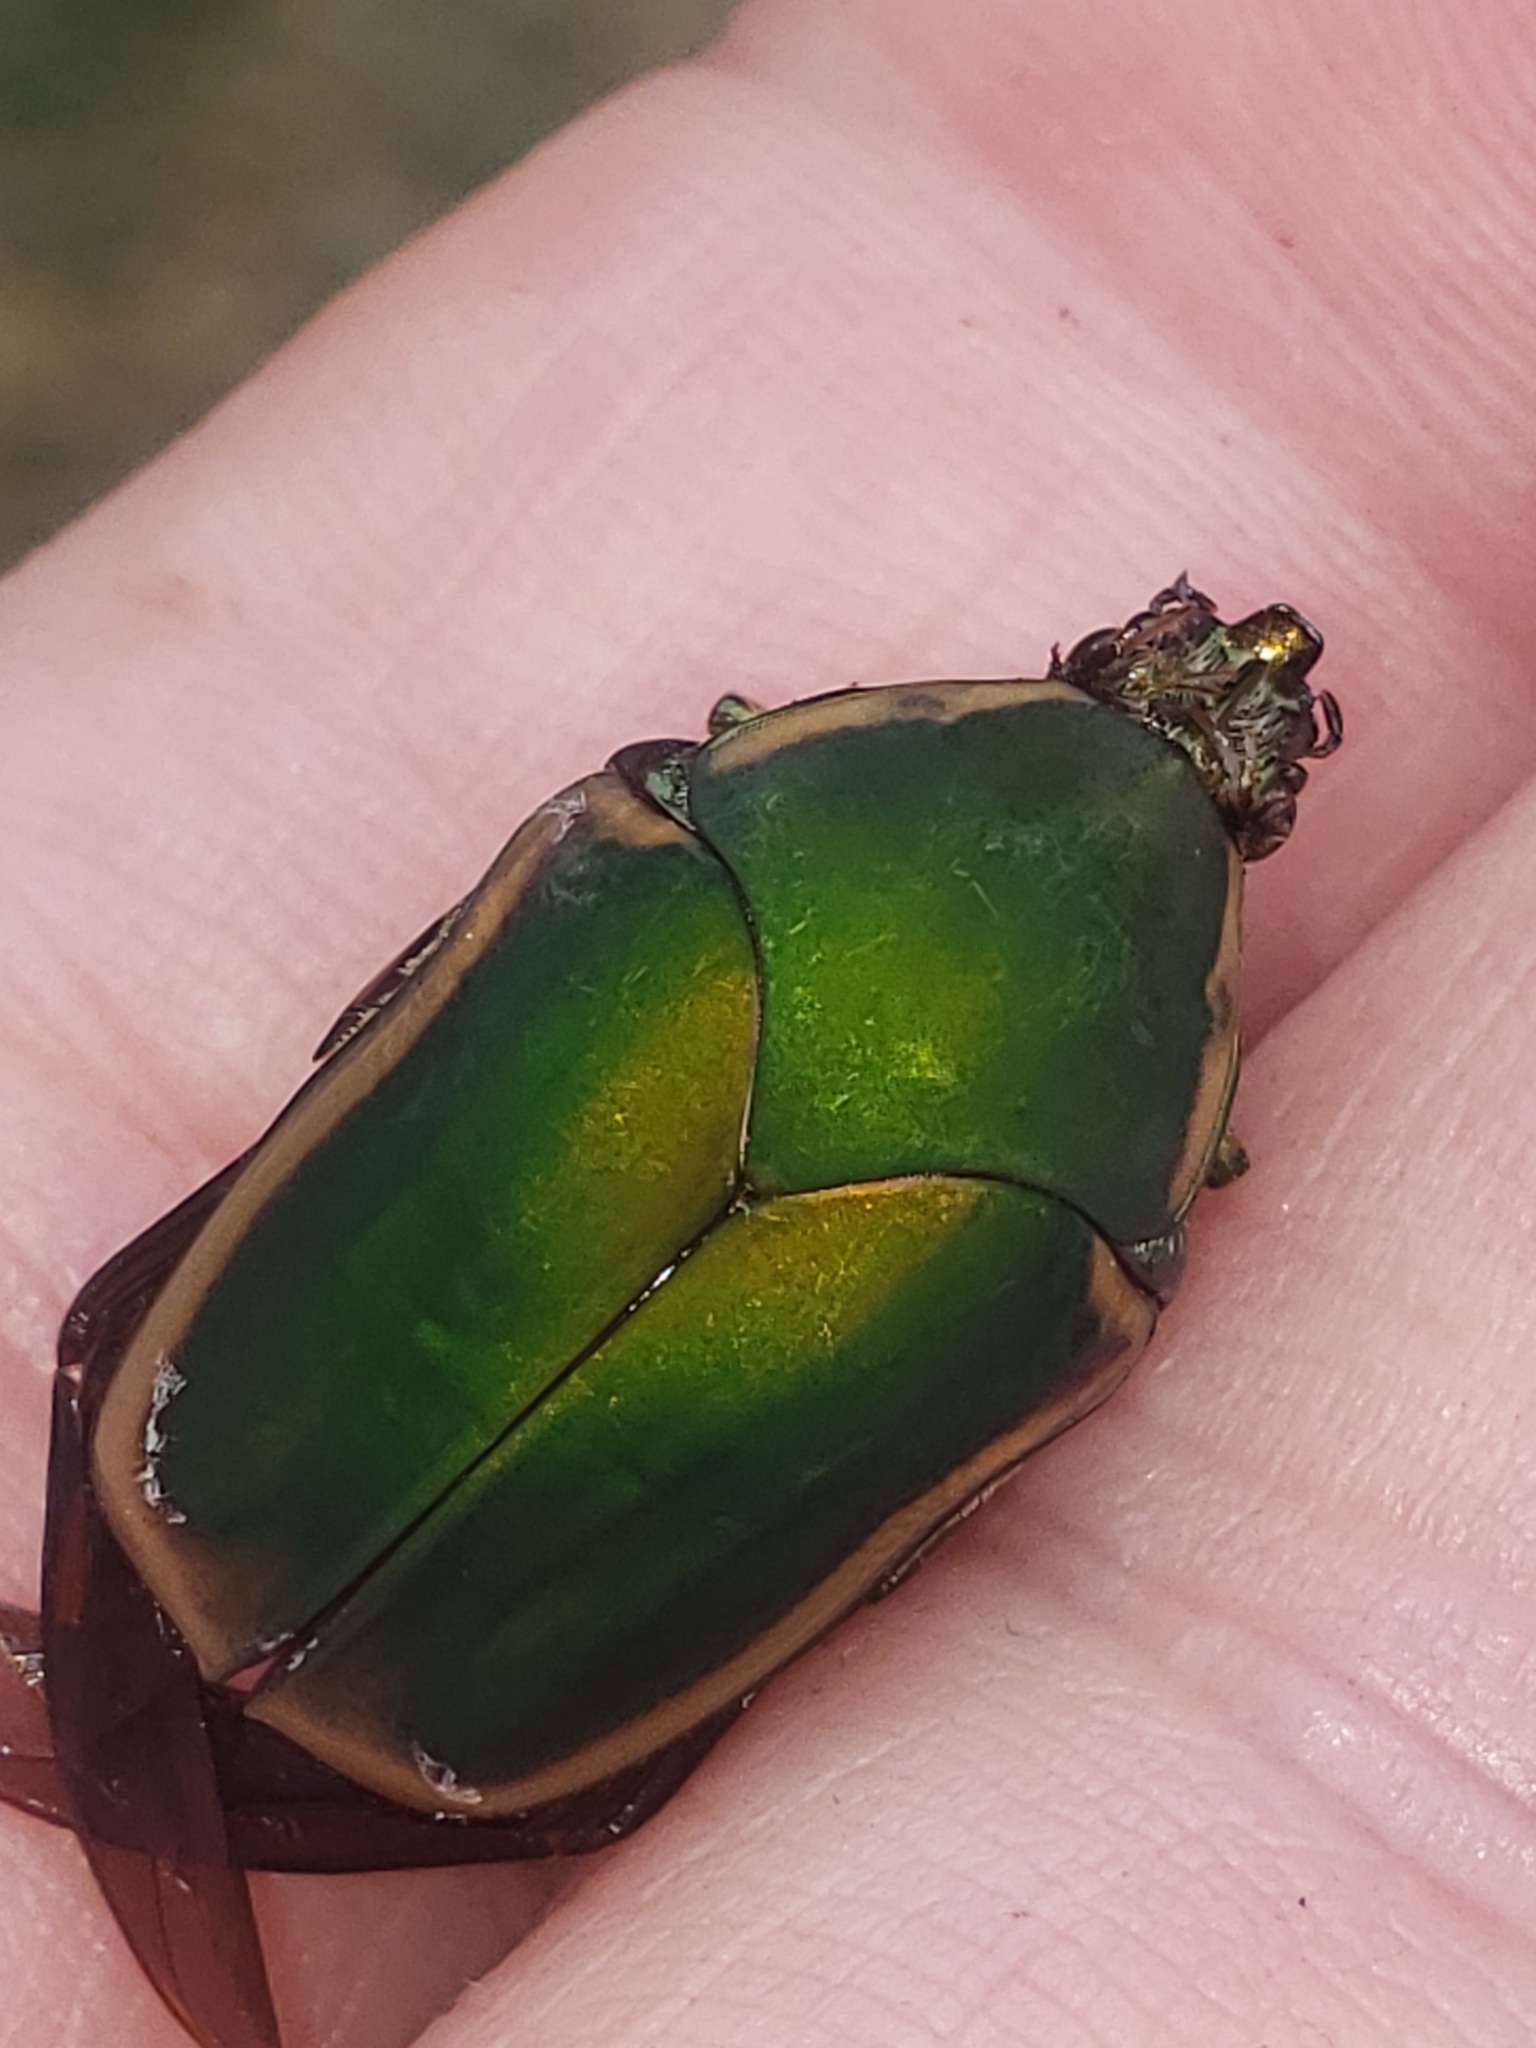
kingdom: Animalia
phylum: Arthropoda
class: Insecta
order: Coleoptera
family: Scarabaeidae
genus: Cotinis
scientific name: Cotinis nitida
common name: Common green june beetle
